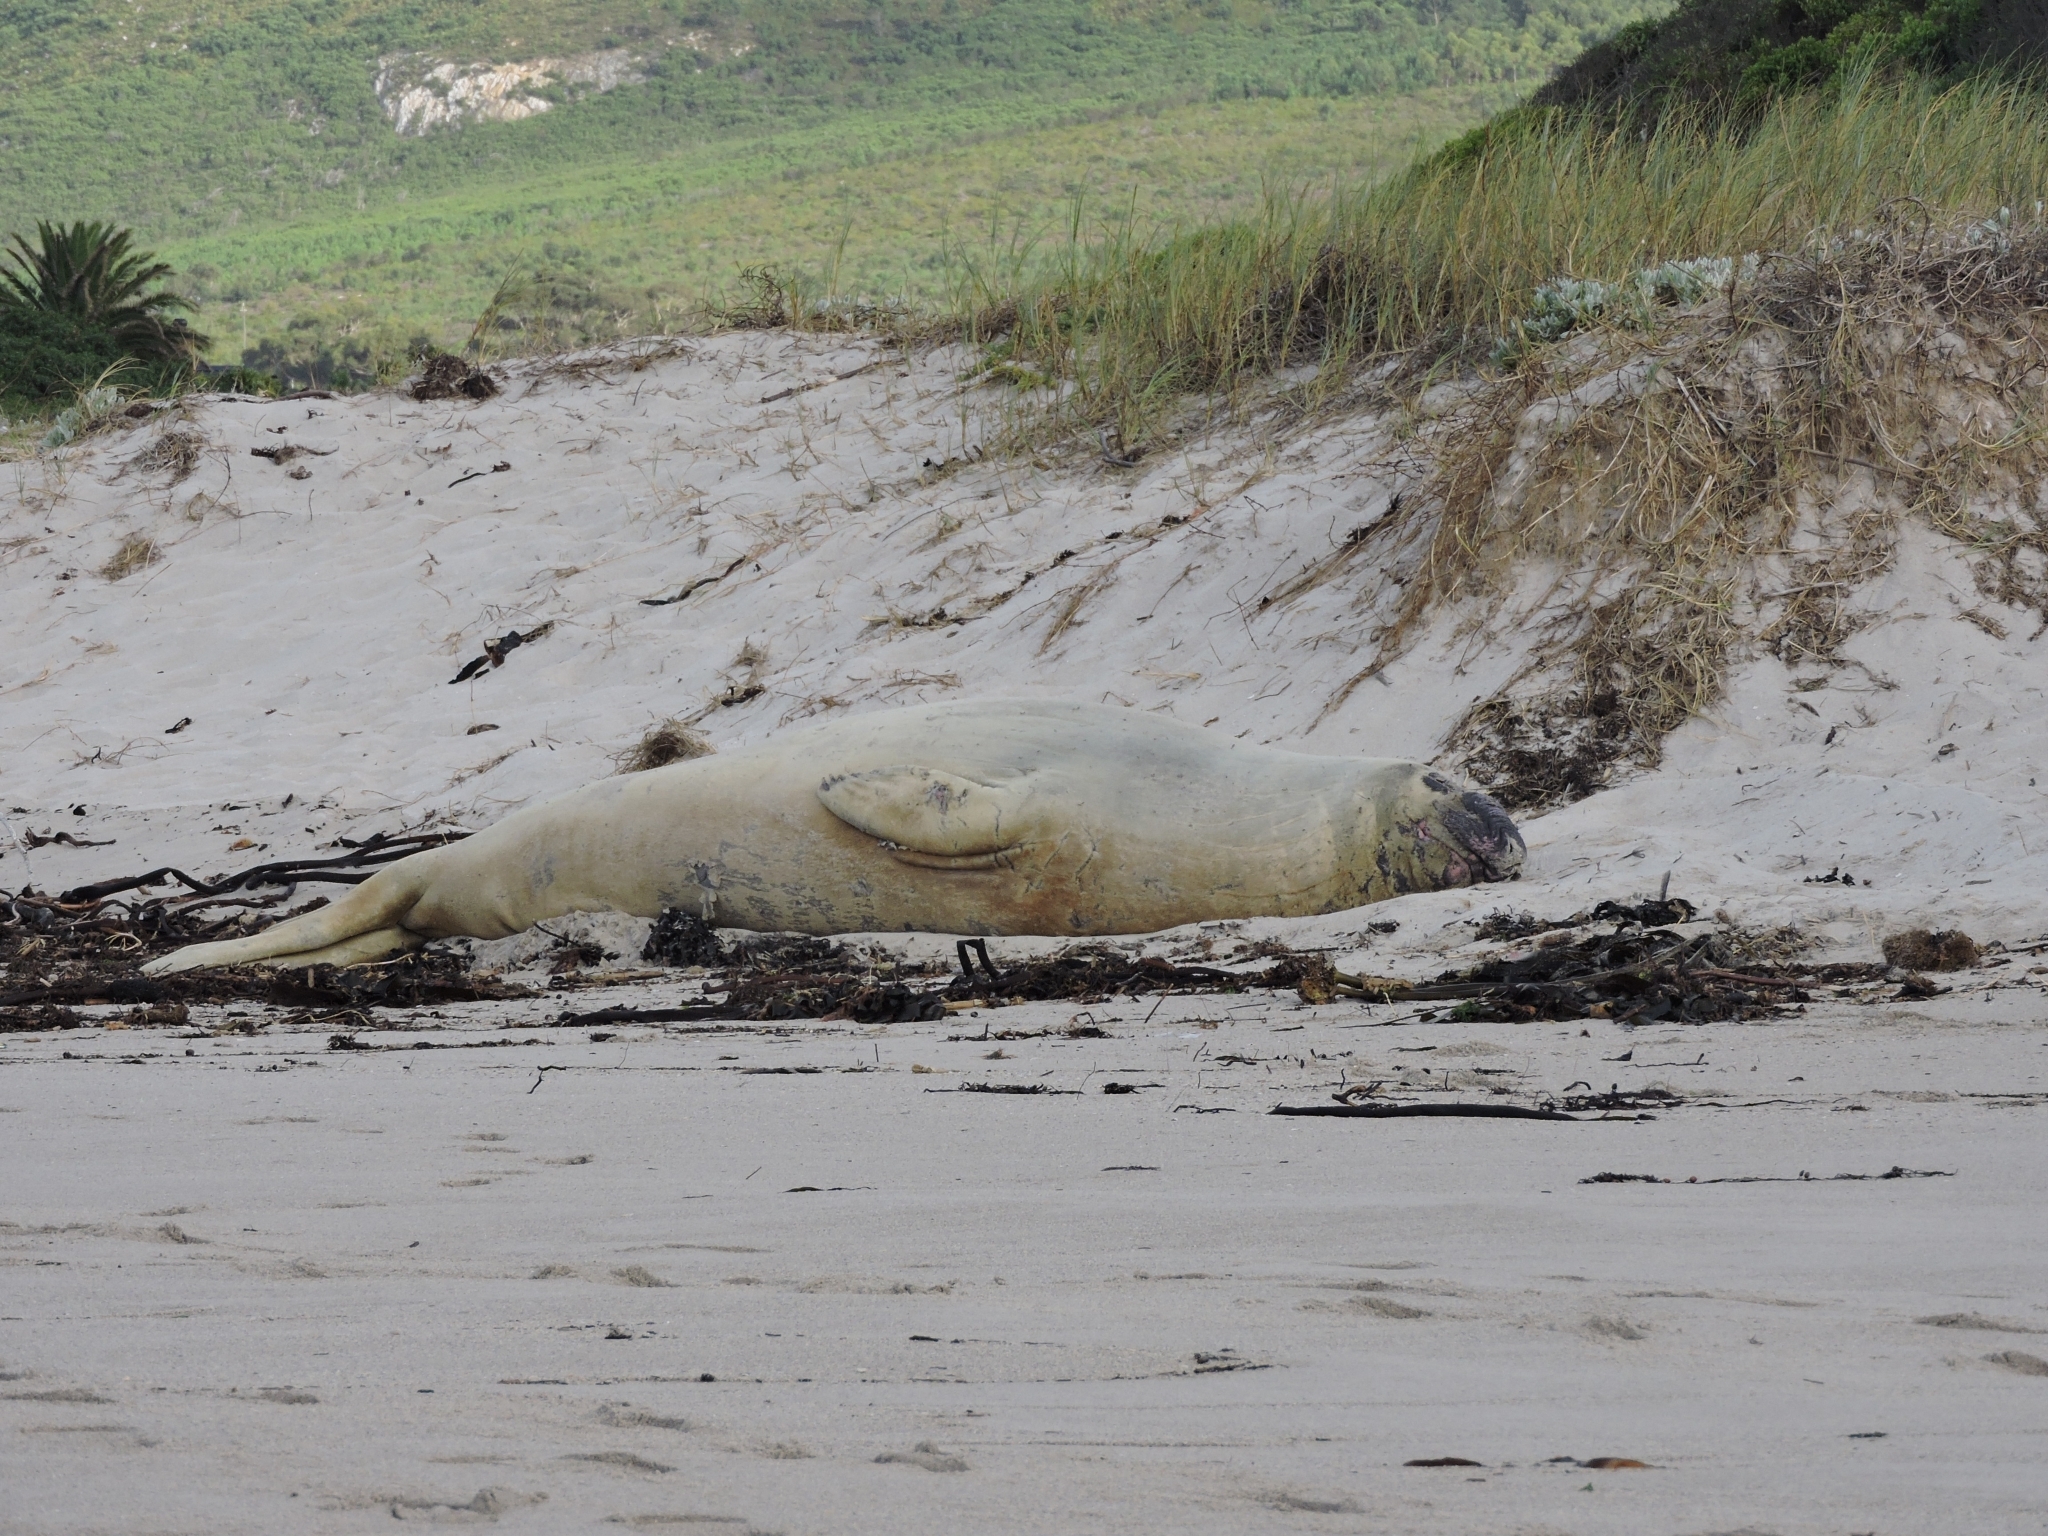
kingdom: Animalia
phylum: Chordata
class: Mammalia
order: Carnivora
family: Phocidae
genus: Mirounga
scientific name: Mirounga leonina
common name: Southern elephant seal
